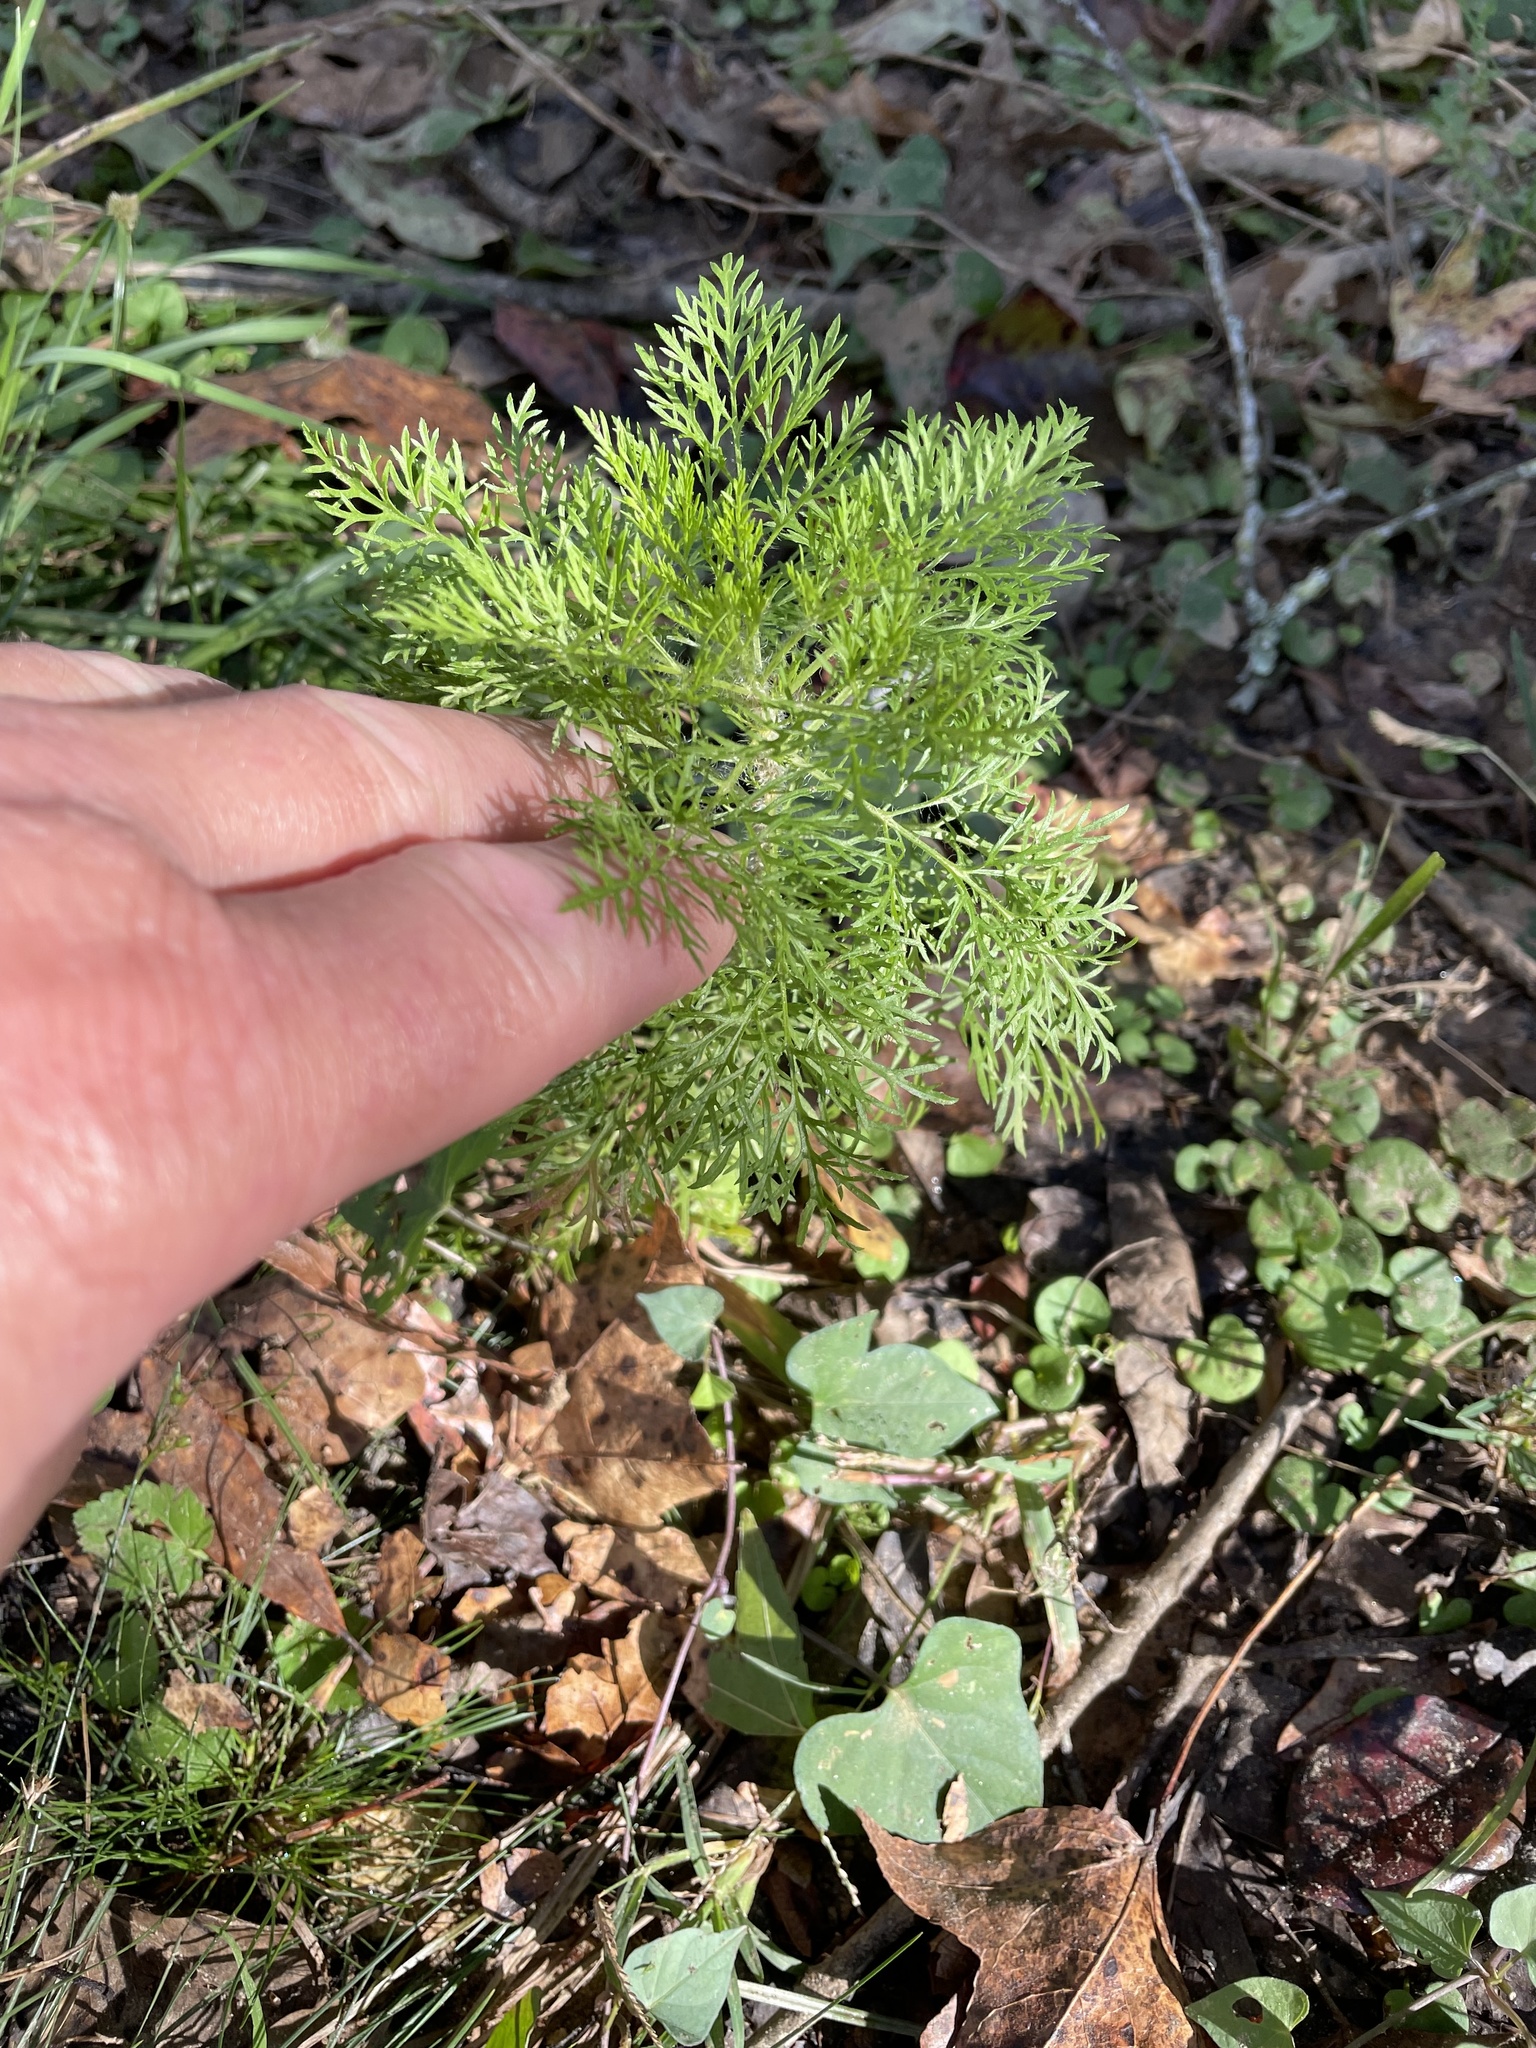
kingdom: Plantae
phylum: Tracheophyta
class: Magnoliopsida
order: Asterales
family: Asteraceae
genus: Eupatorium
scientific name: Eupatorium capillifolium
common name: Dog-fennel
